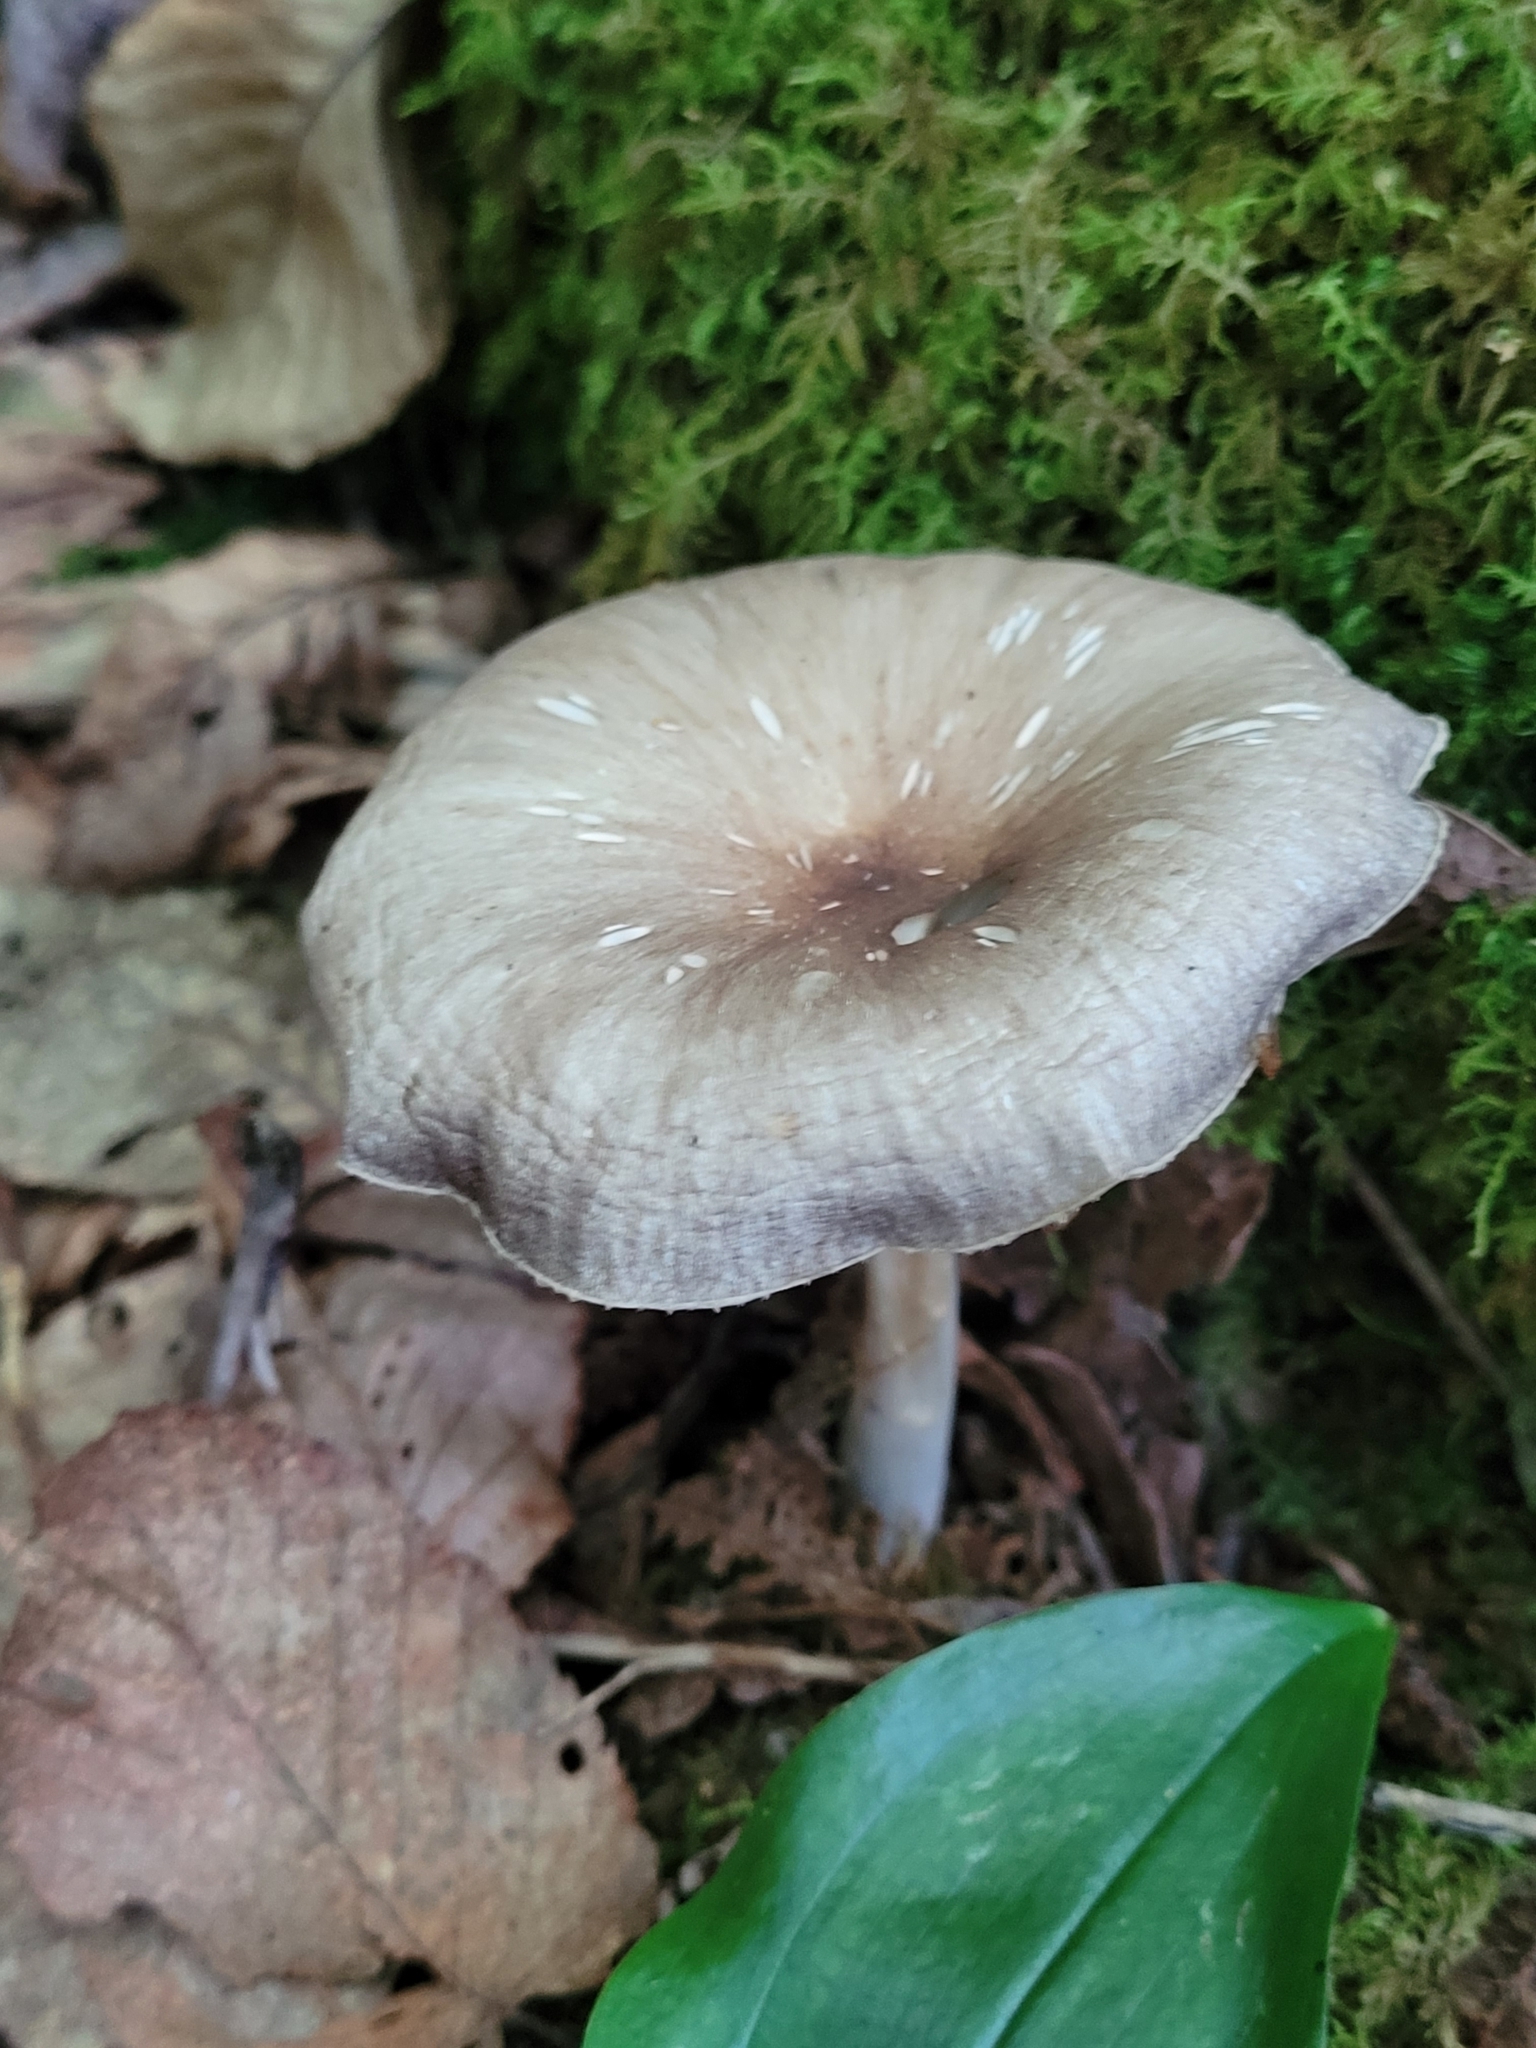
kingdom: Fungi
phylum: Basidiomycota
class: Agaricomycetes
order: Agaricales
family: Tricholomataceae
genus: Megacollybia
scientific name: Megacollybia rodmanii
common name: Eastern american platterful mushroom
